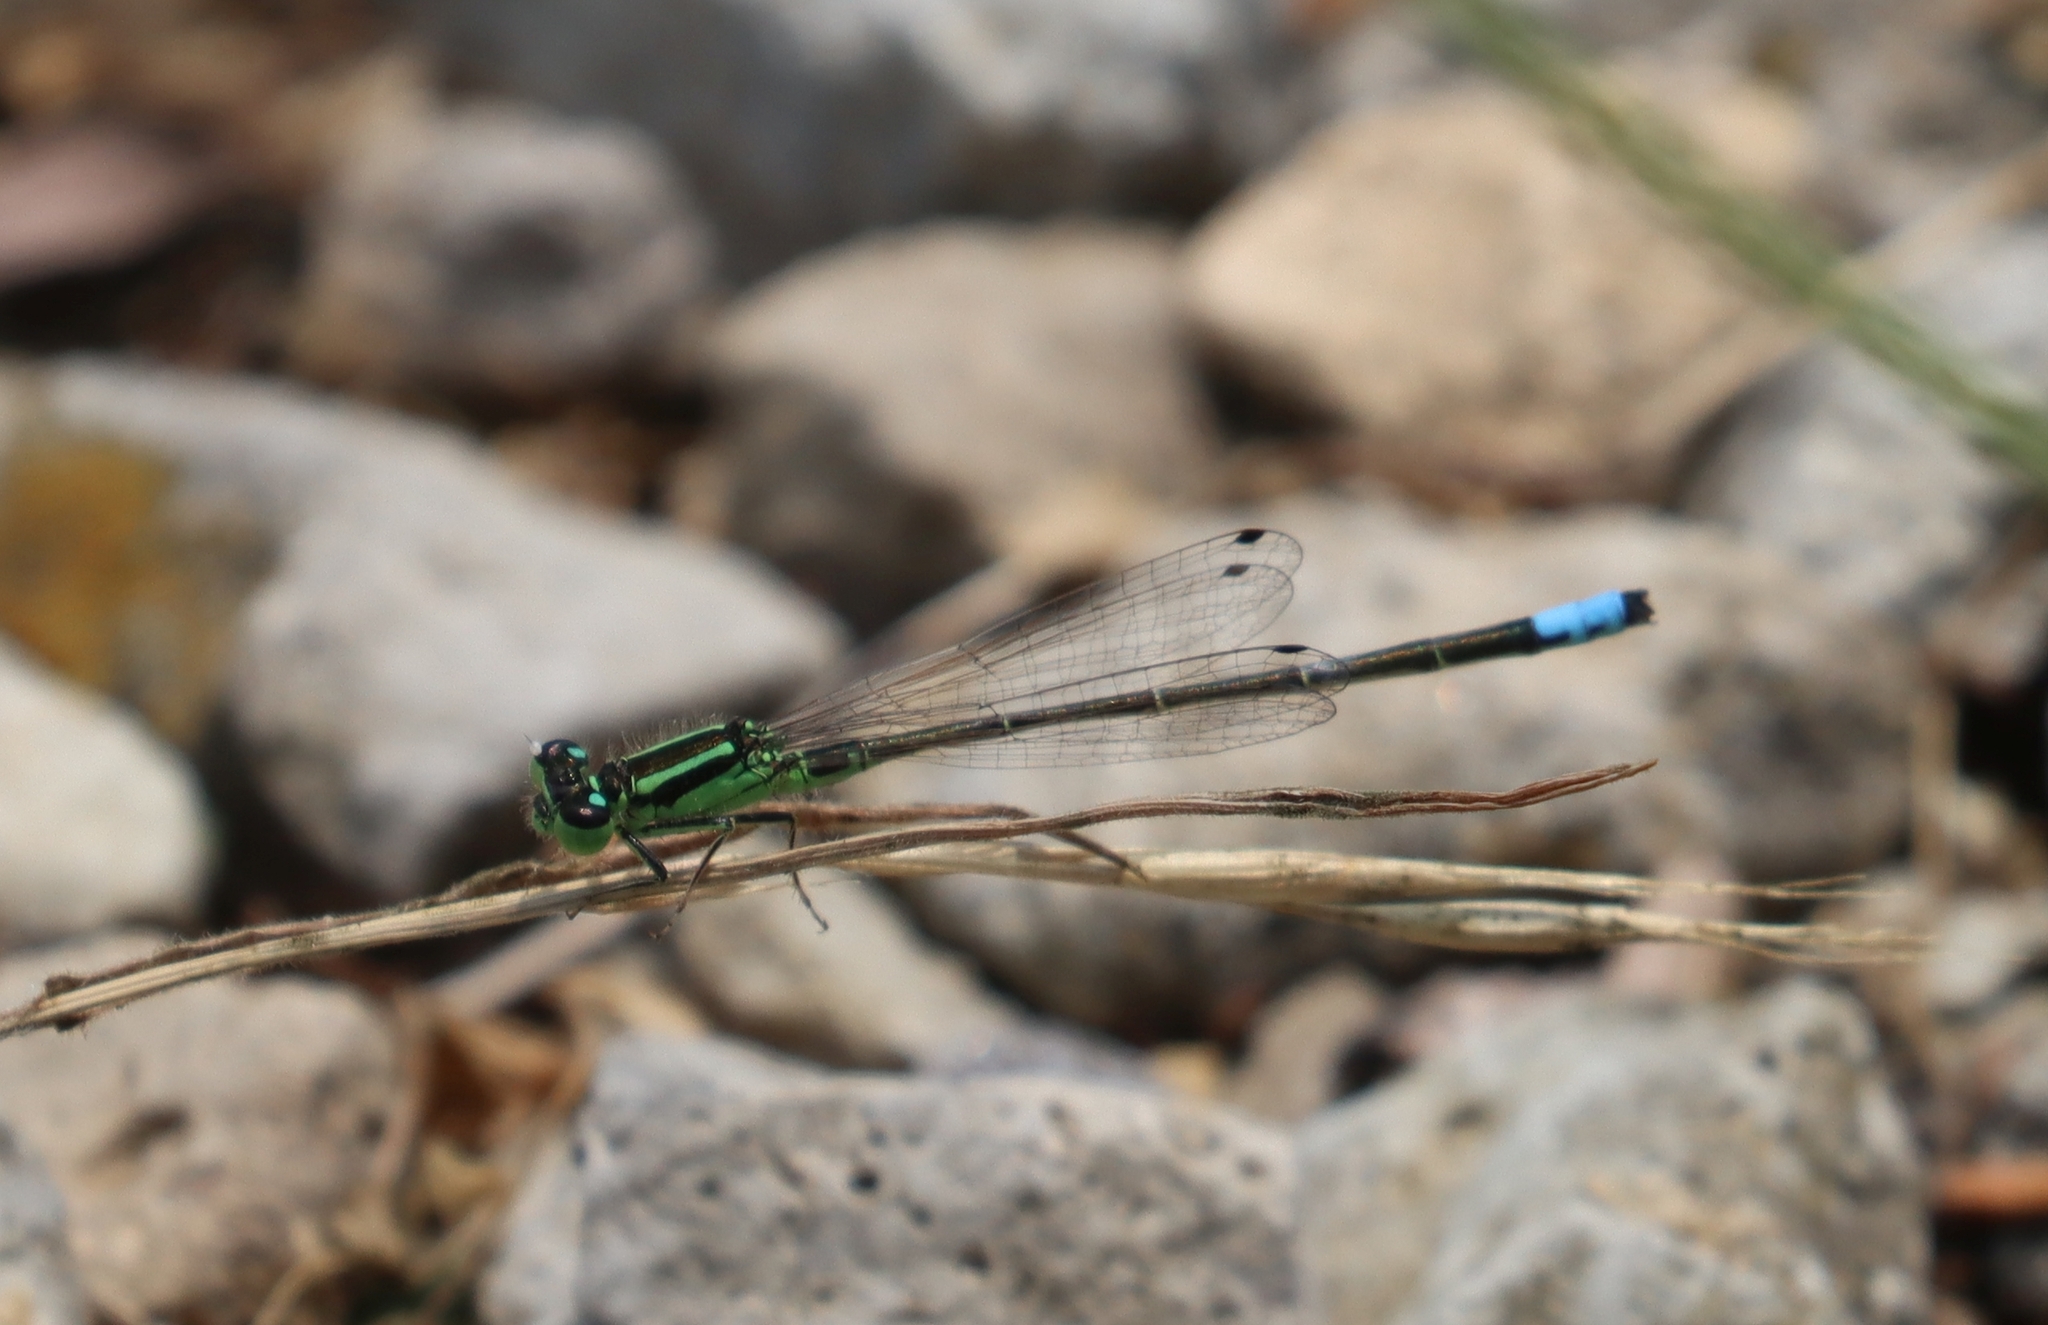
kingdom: Animalia
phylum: Arthropoda
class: Insecta
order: Odonata
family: Coenagrionidae
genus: Ischnura
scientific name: Ischnura verticalis
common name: Eastern forktail
